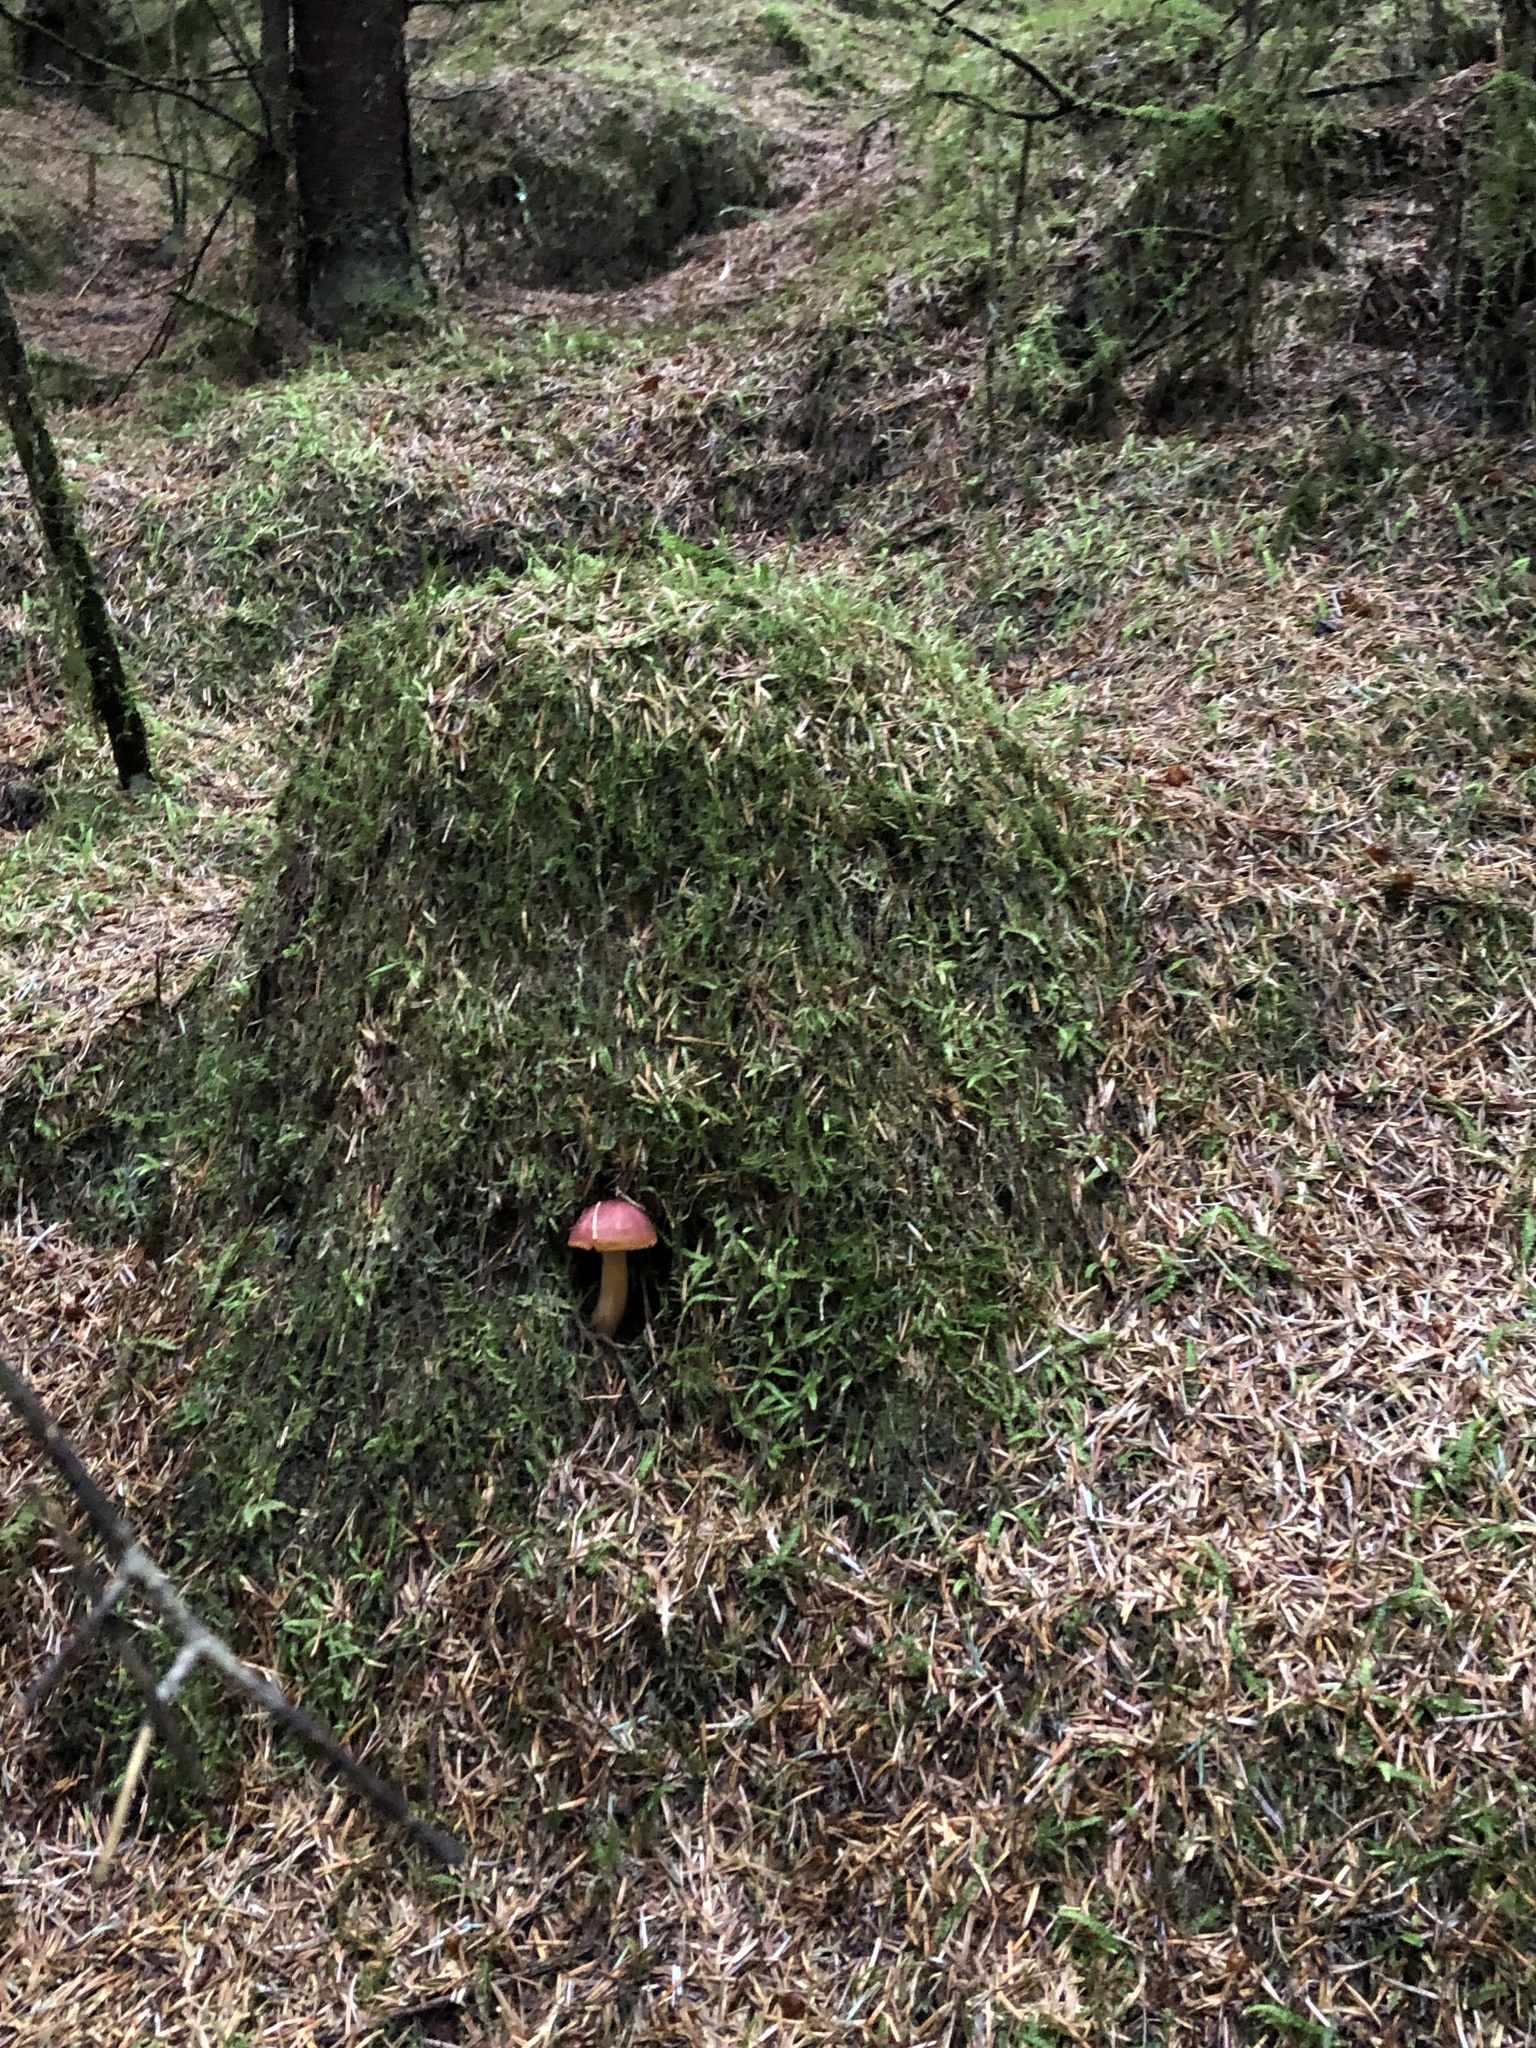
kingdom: Fungi
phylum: Basidiomycota
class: Agaricomycetes
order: Agaricales
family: Tricholomataceae
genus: Tricholomopsis
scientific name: Tricholomopsis rutilans
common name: Plums and custard
